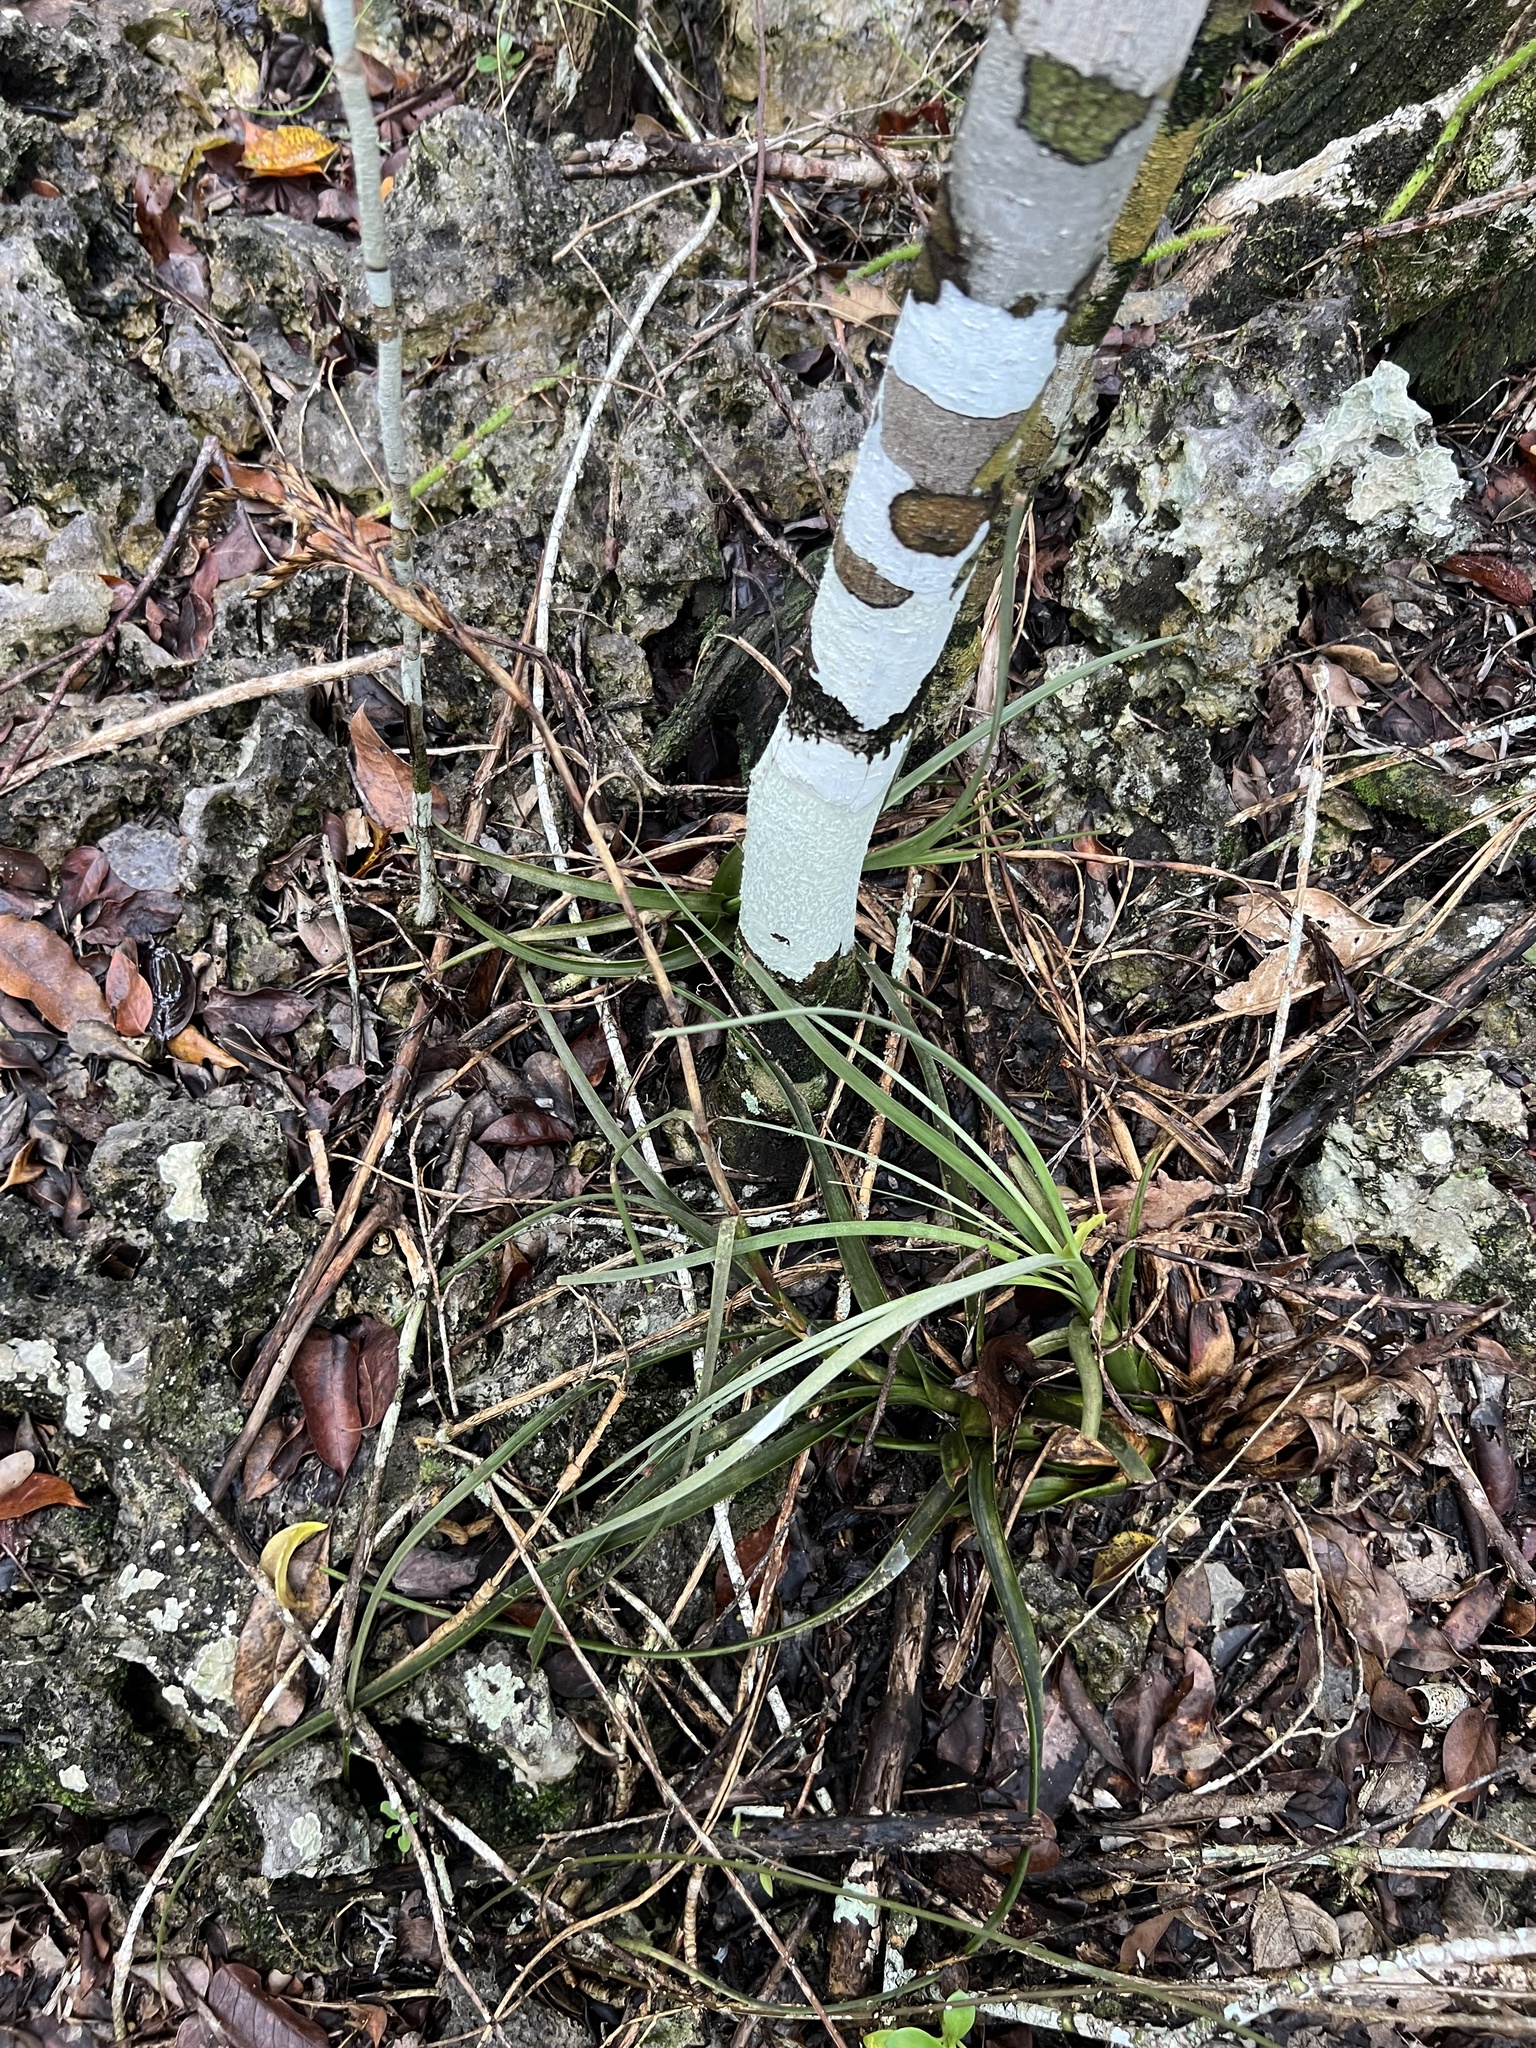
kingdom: Plantae
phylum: Tracheophyta
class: Liliopsida
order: Poales
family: Bromeliaceae
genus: Tillandsia
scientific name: Tillandsia balbisiana
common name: Northern needleleaf
